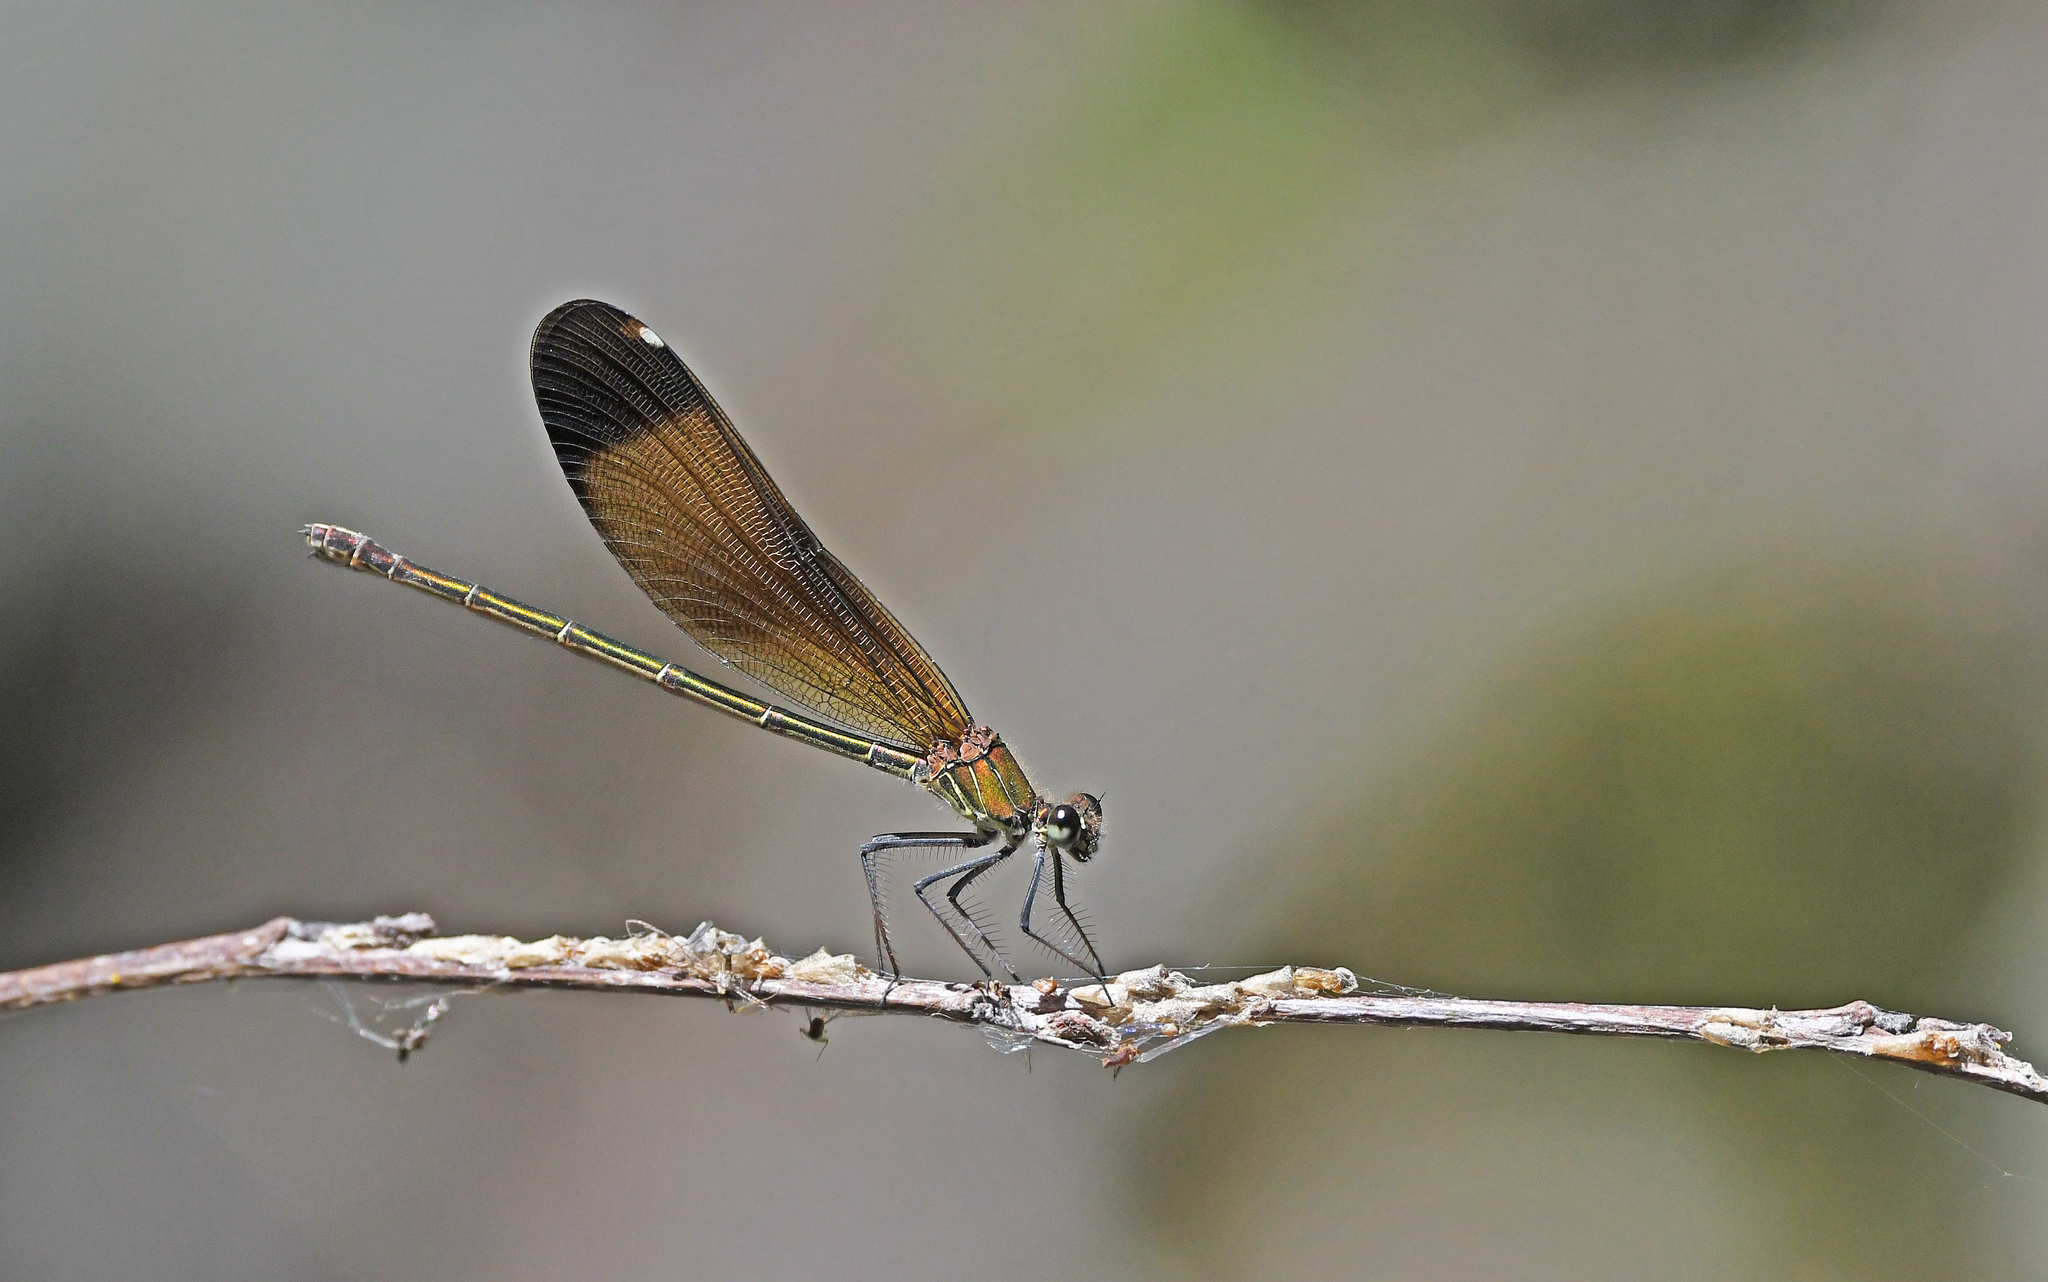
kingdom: Animalia
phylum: Arthropoda
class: Insecta
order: Odonata
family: Calopterygidae
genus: Calopteryx
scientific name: Calopteryx haemorrhoidalis
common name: Copper demoiselle
